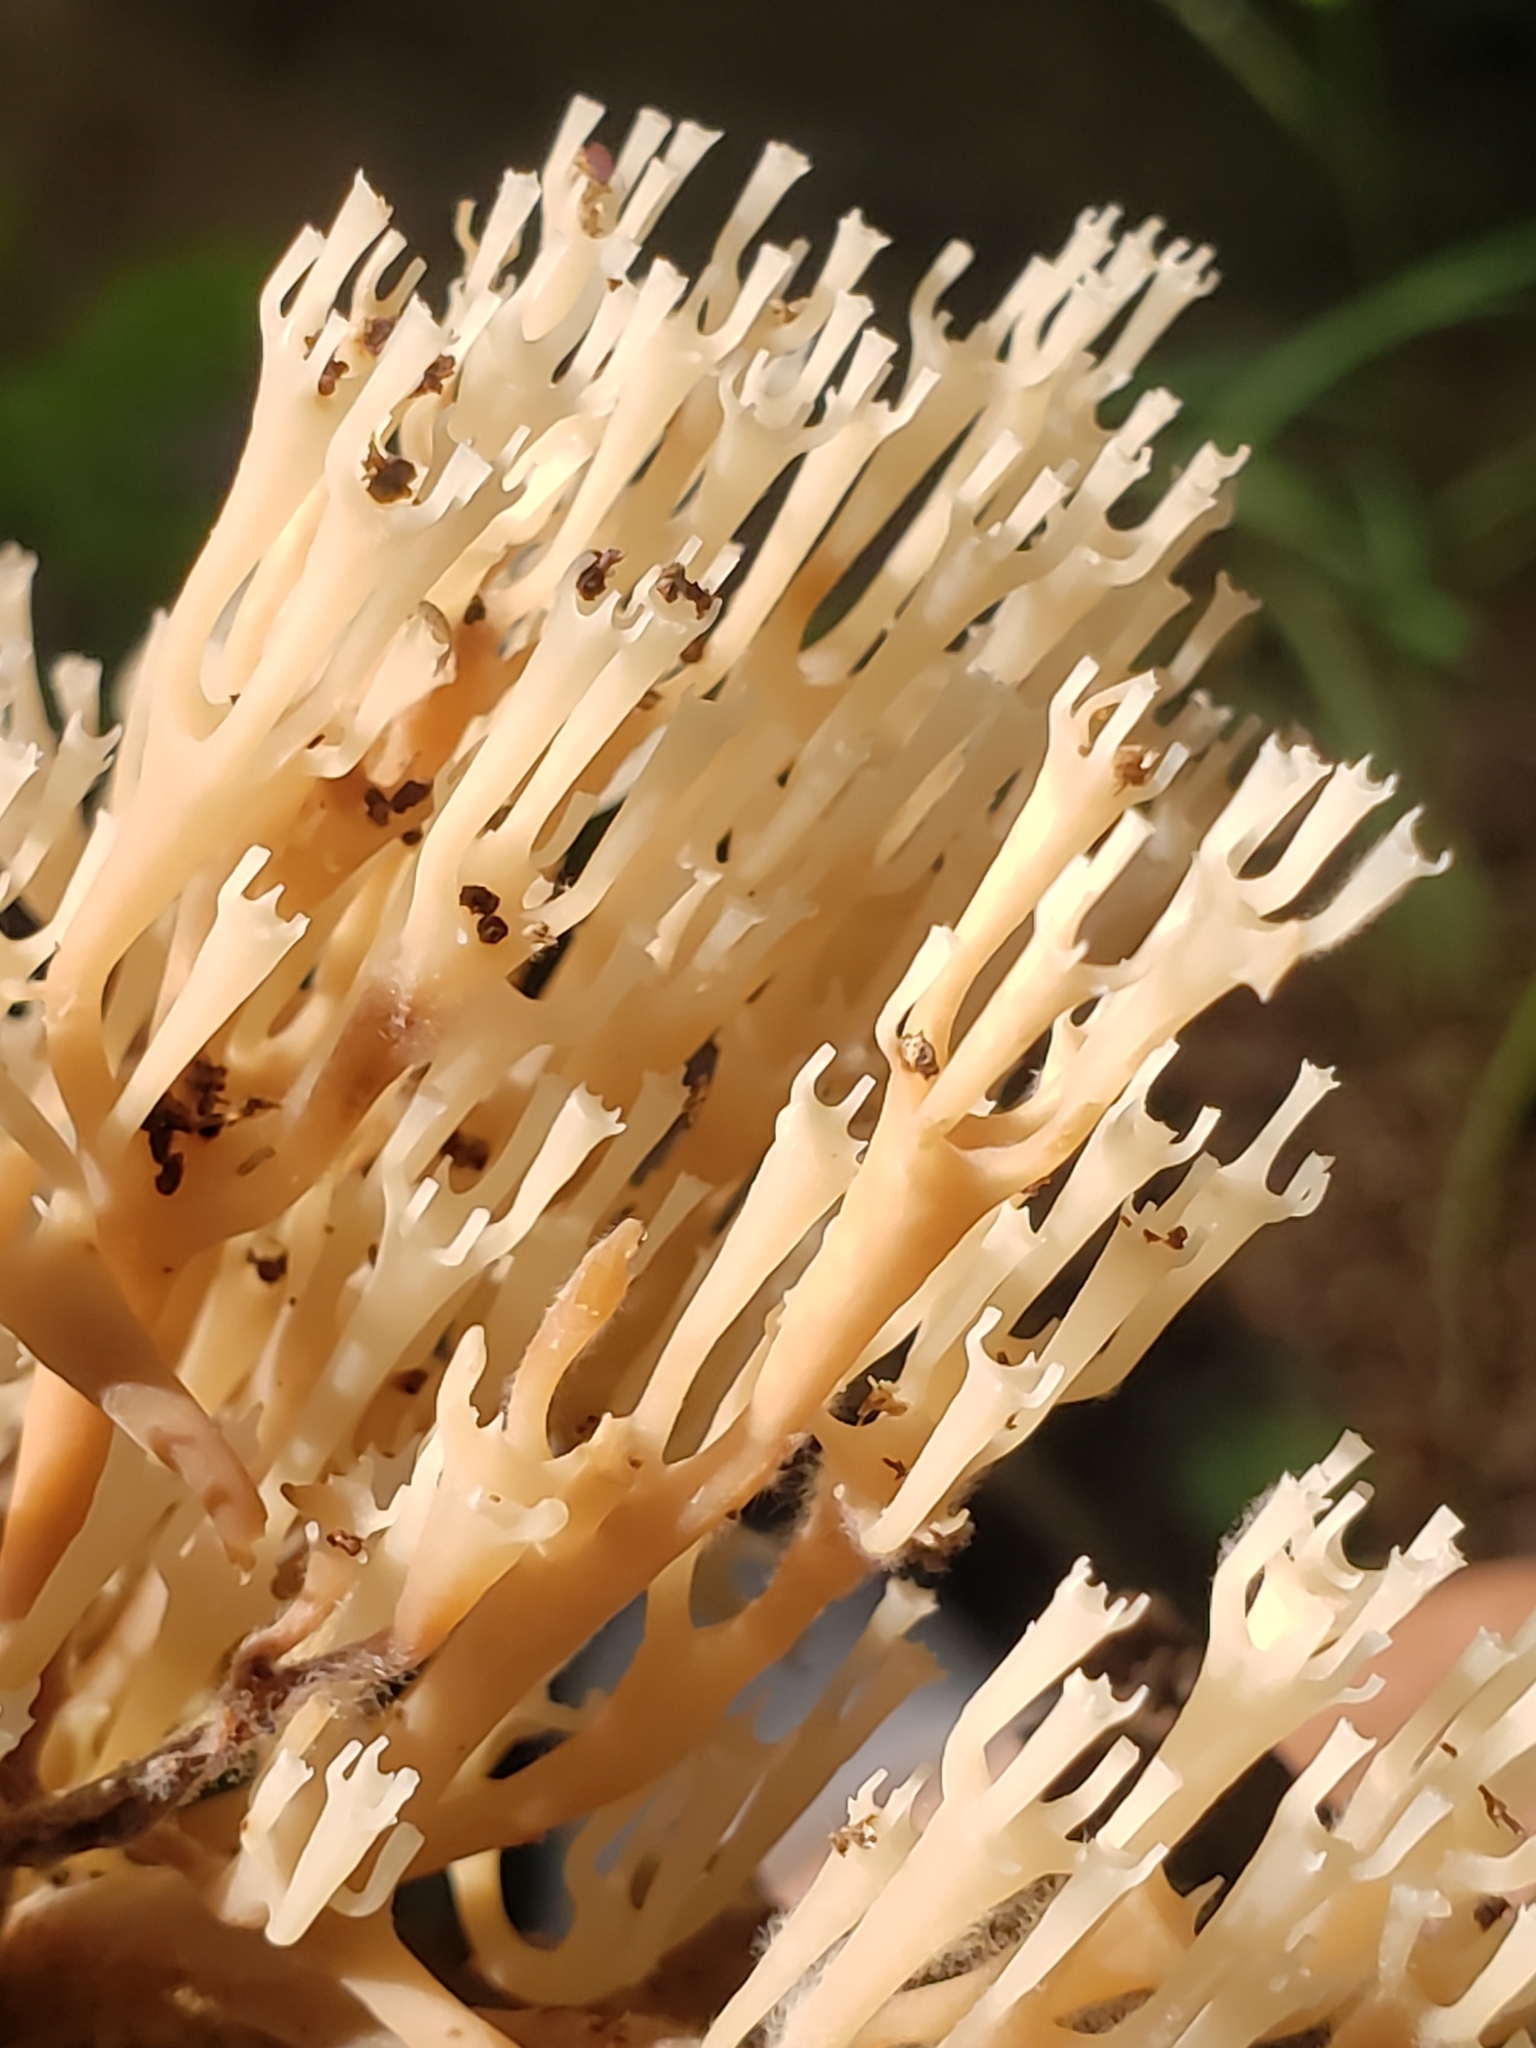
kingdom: Fungi
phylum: Basidiomycota
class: Agaricomycetes
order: Russulales
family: Auriscalpiaceae
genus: Artomyces
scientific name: Artomyces pyxidatus
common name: Crown-tipped coral fungus
